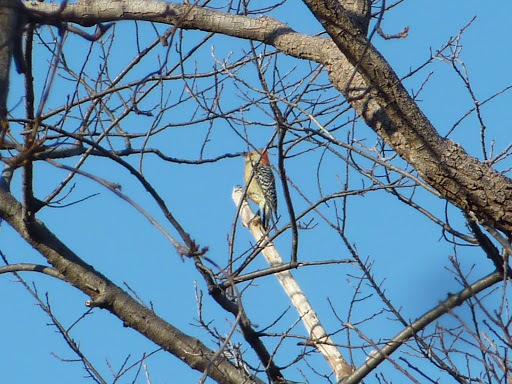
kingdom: Animalia
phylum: Chordata
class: Aves
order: Piciformes
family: Picidae
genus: Melanerpes
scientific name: Melanerpes carolinus
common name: Red-bellied woodpecker
